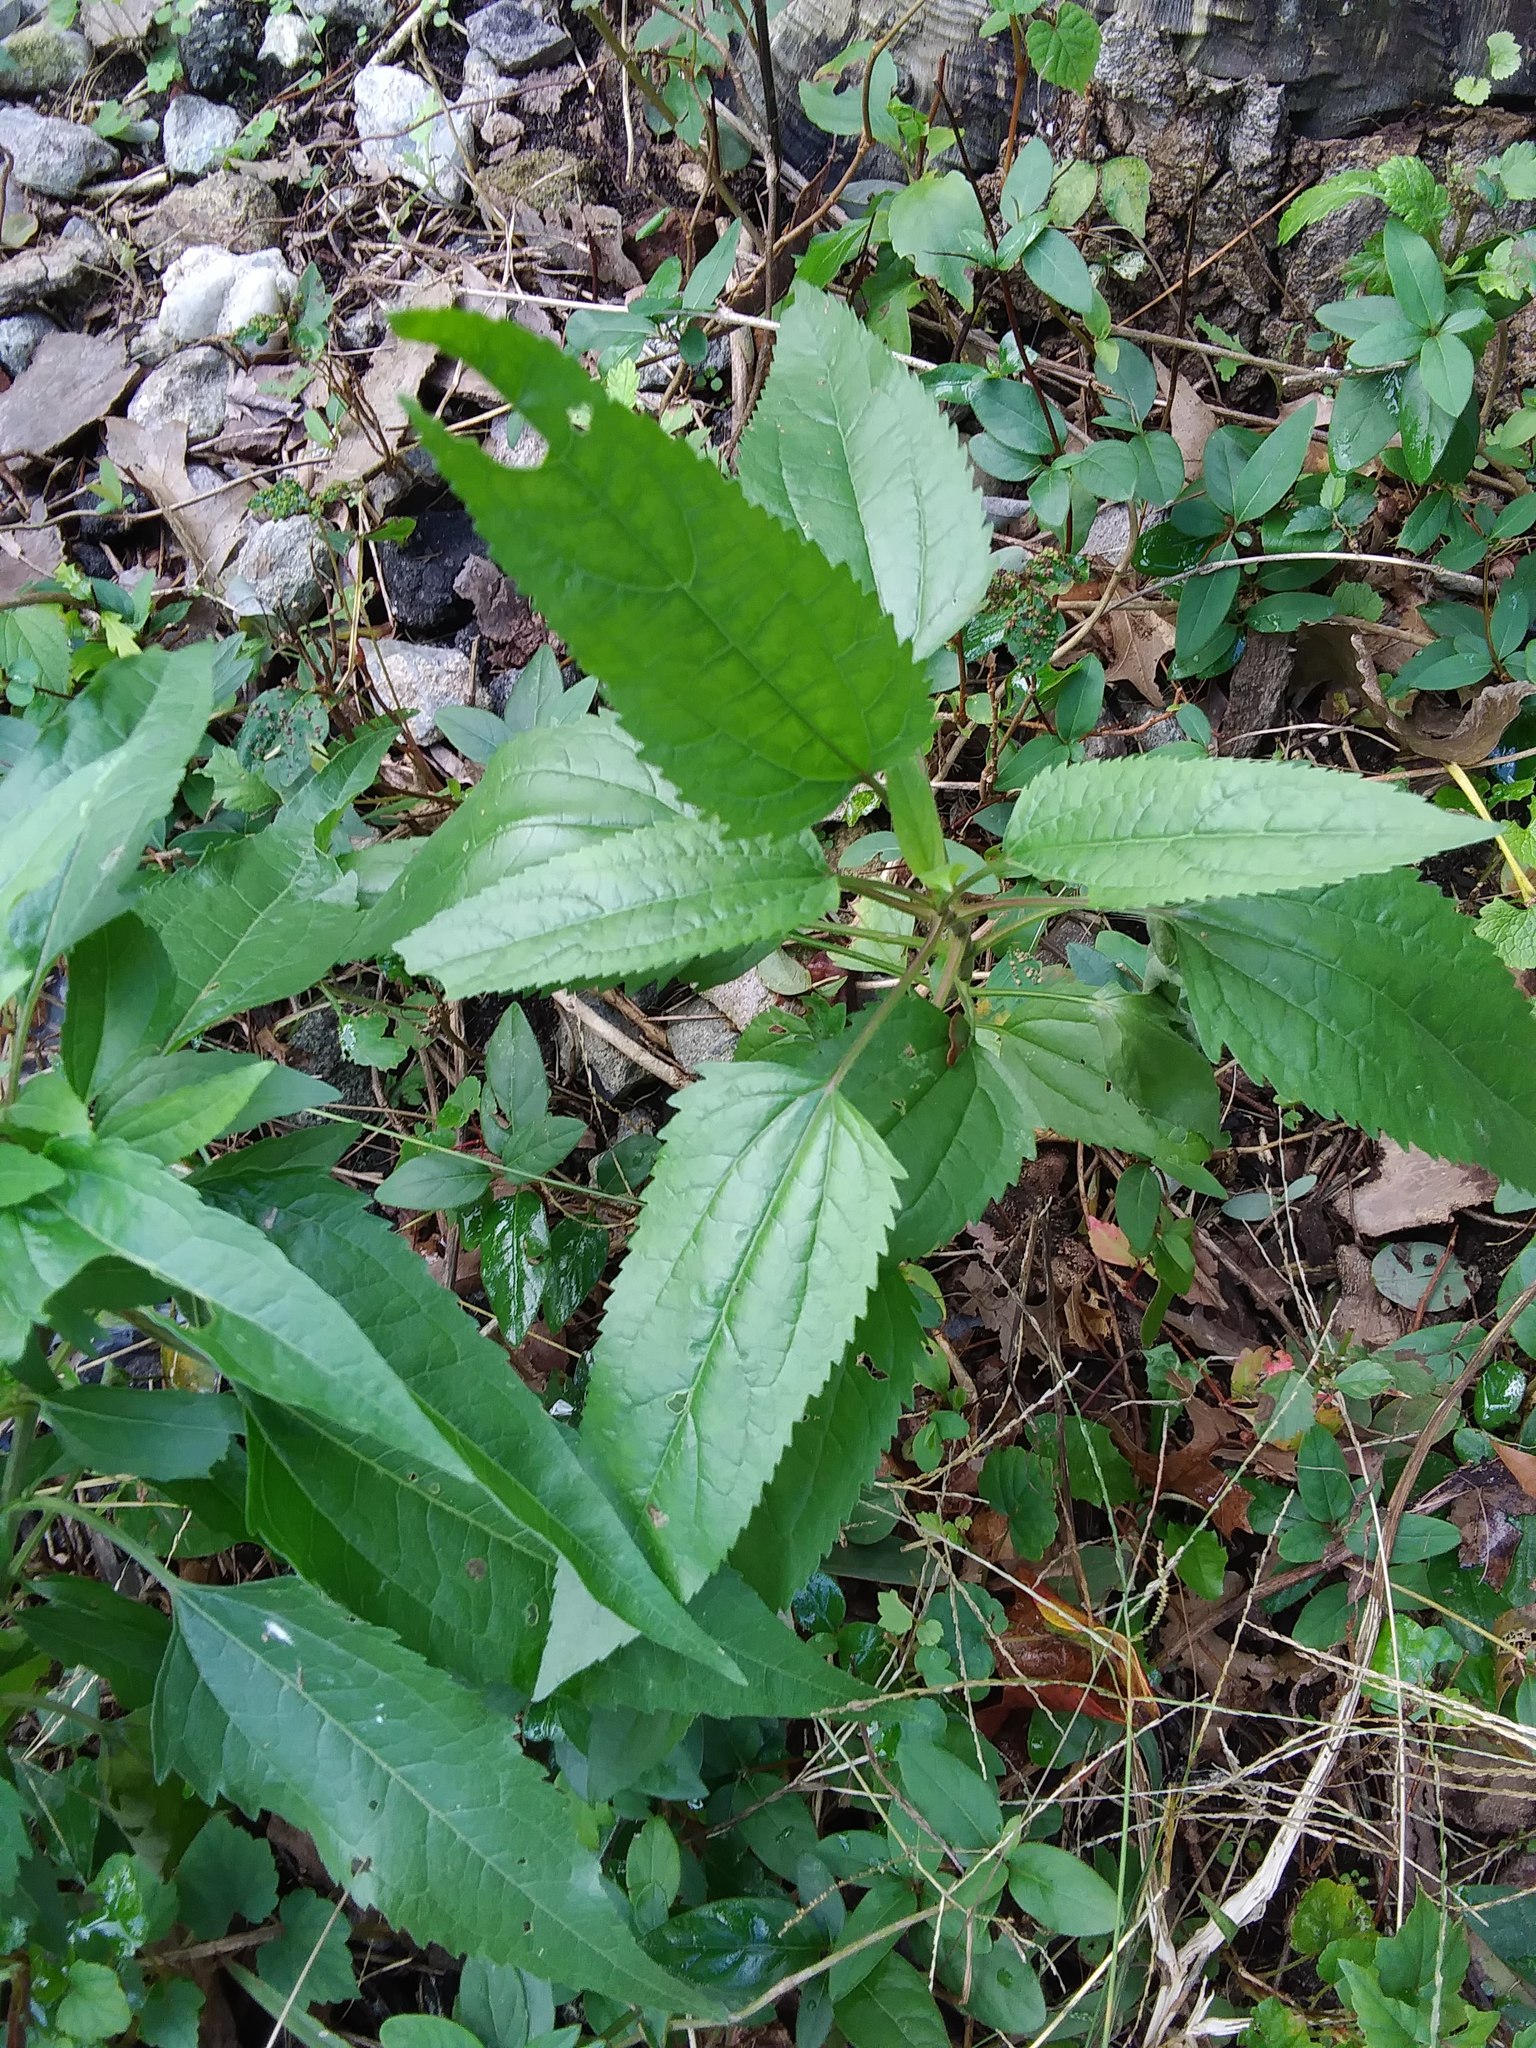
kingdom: Plantae
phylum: Tracheophyta
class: Magnoliopsida
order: Asterales
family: Asteraceae
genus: Eupatorium
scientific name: Eupatorium serotinum
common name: Late boneset
